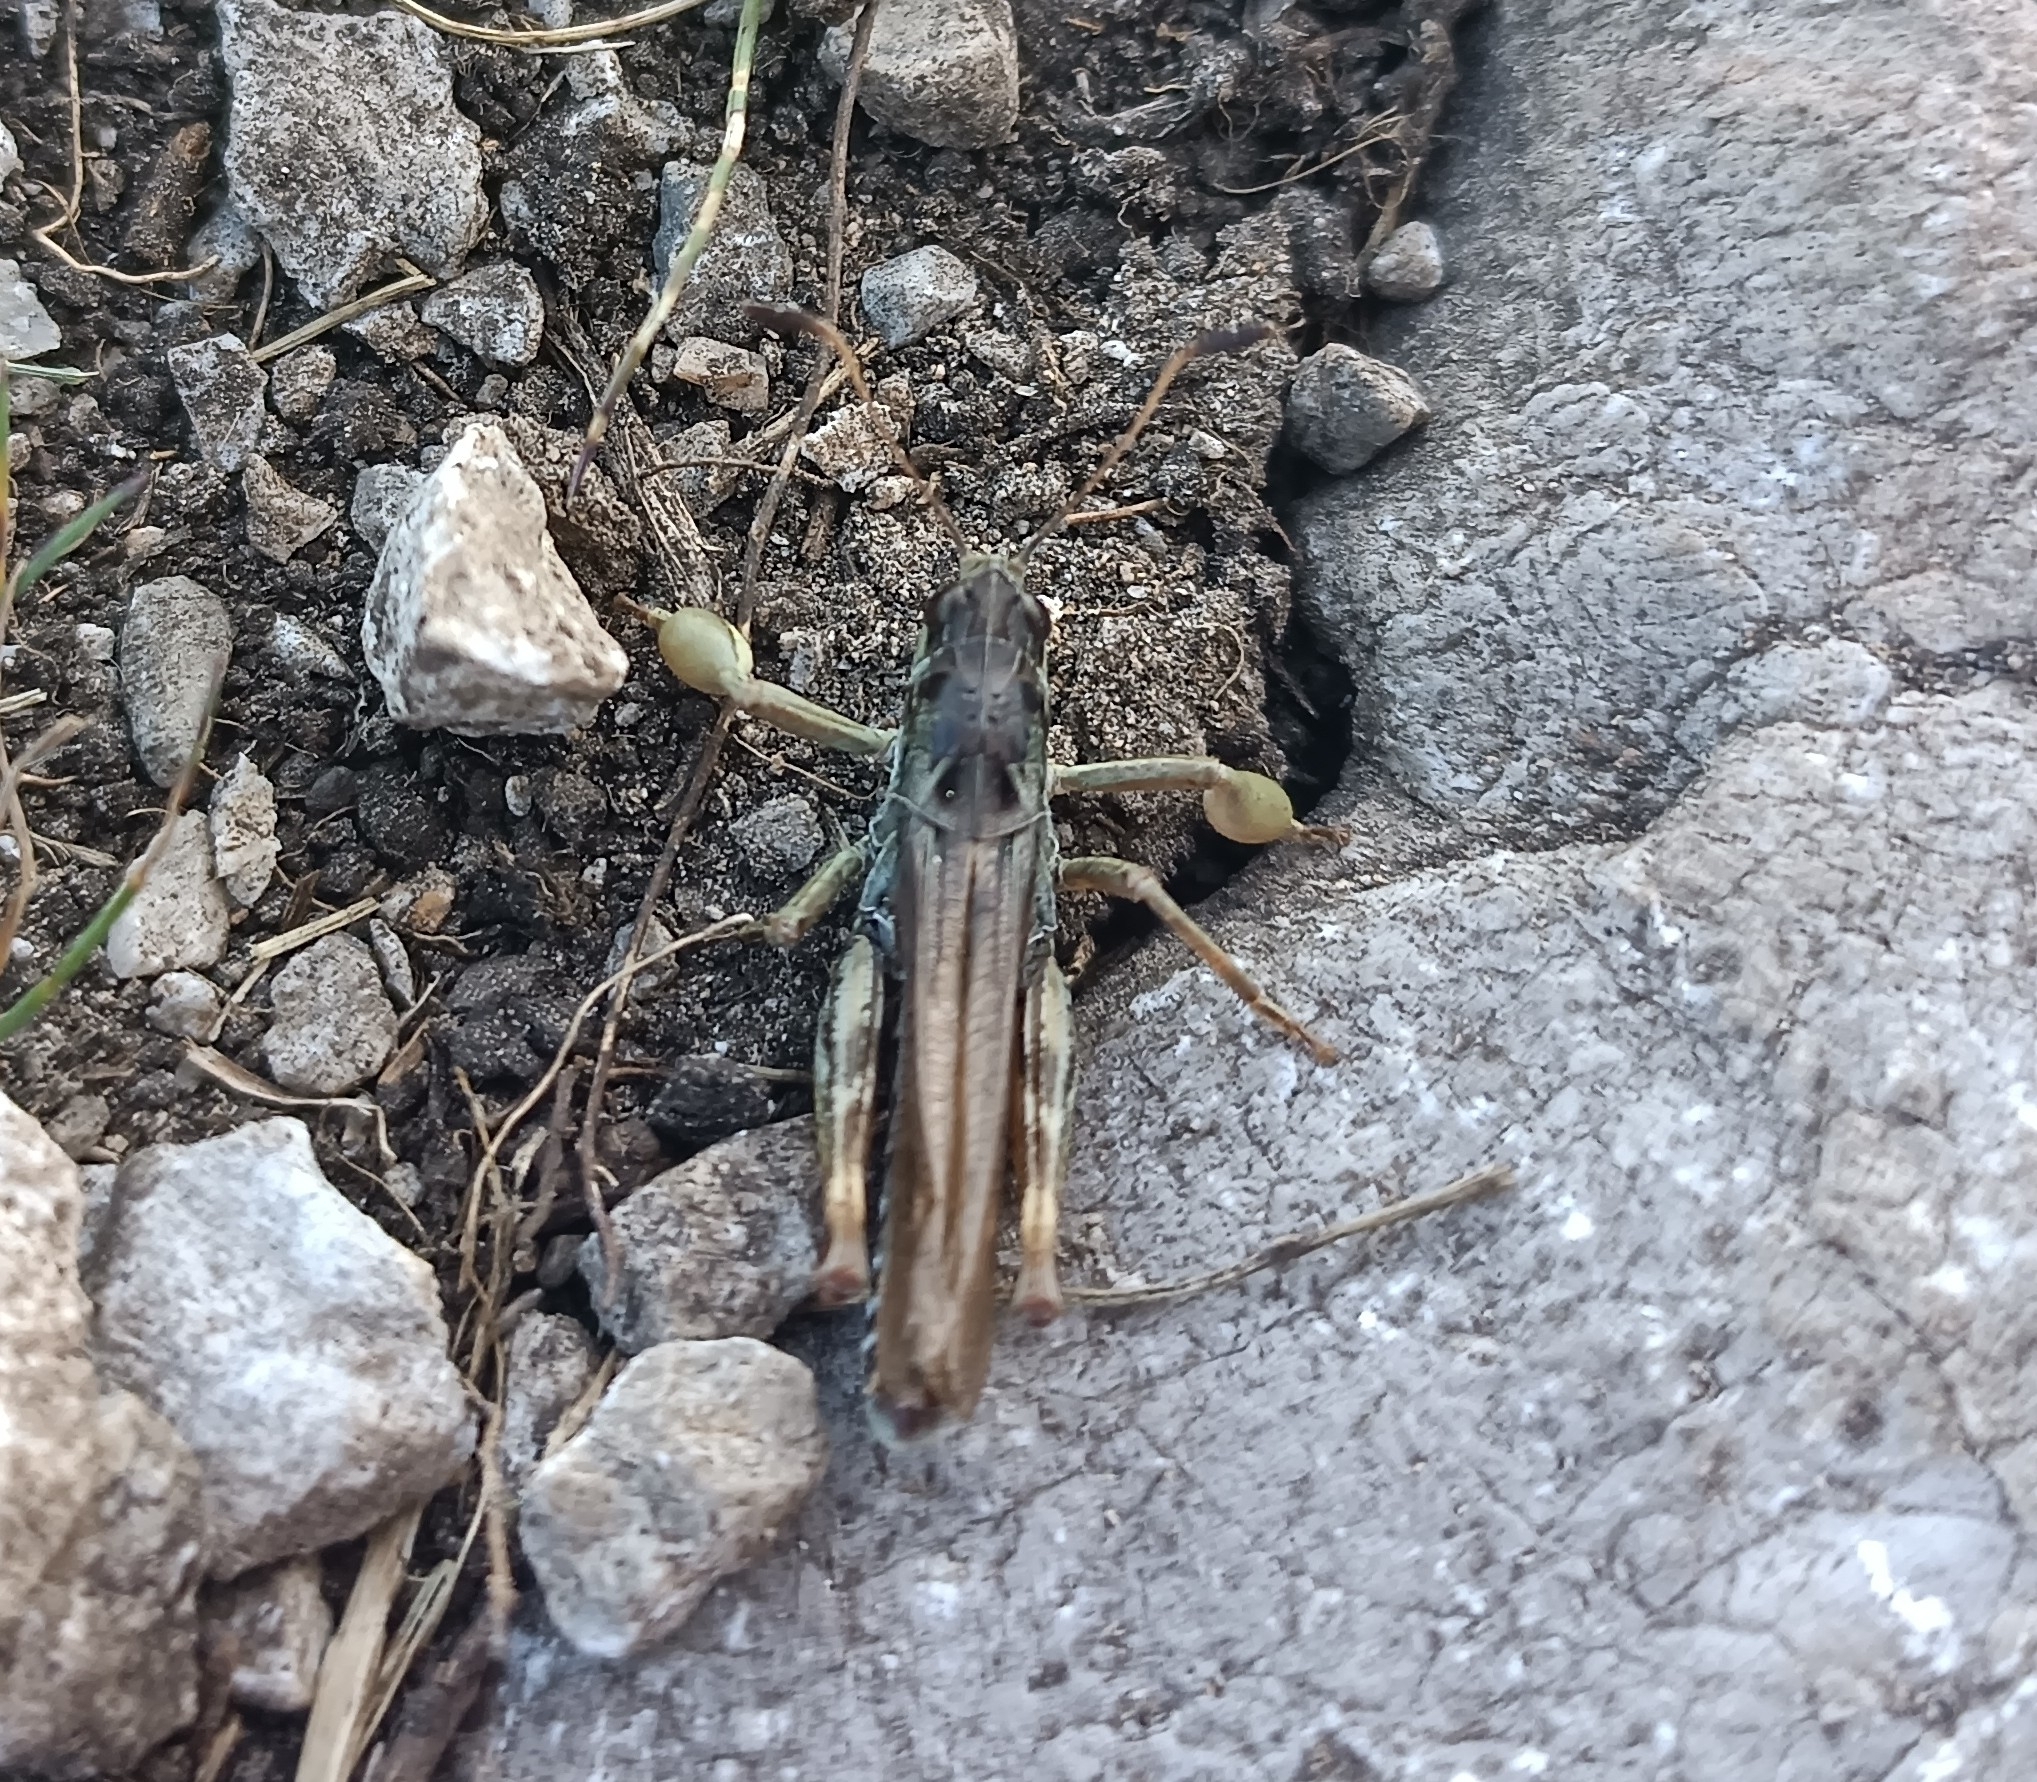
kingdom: Animalia
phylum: Arthropoda
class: Insecta
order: Orthoptera
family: Acrididae
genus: Gomphocerus
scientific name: Gomphocerus sibiricus
